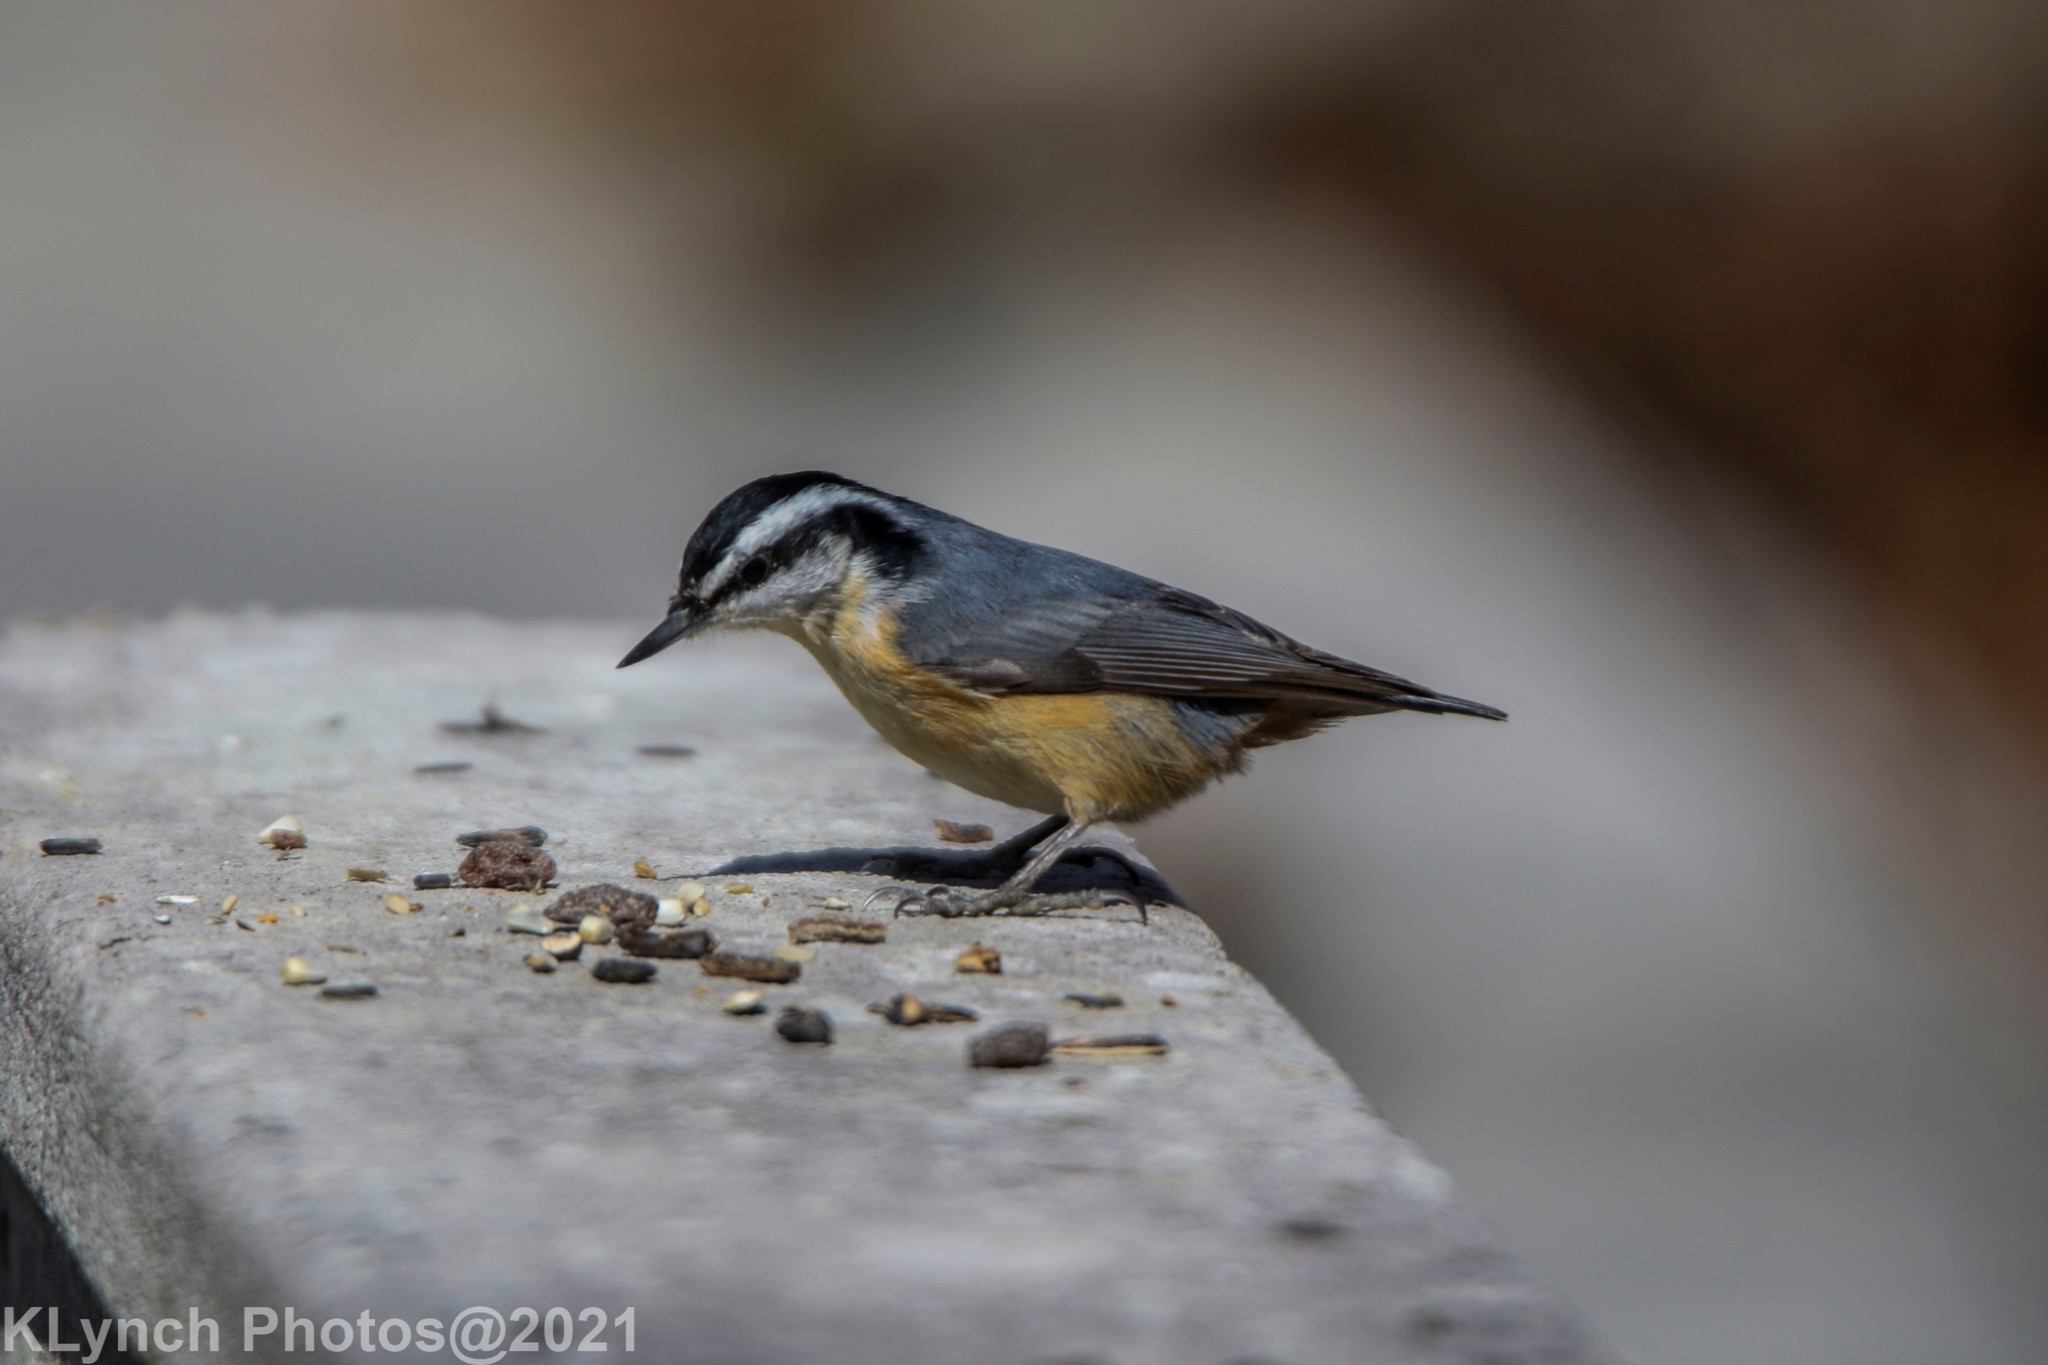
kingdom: Animalia
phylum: Chordata
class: Aves
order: Passeriformes
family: Sittidae
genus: Sitta
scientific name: Sitta canadensis
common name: Red-breasted nuthatch
